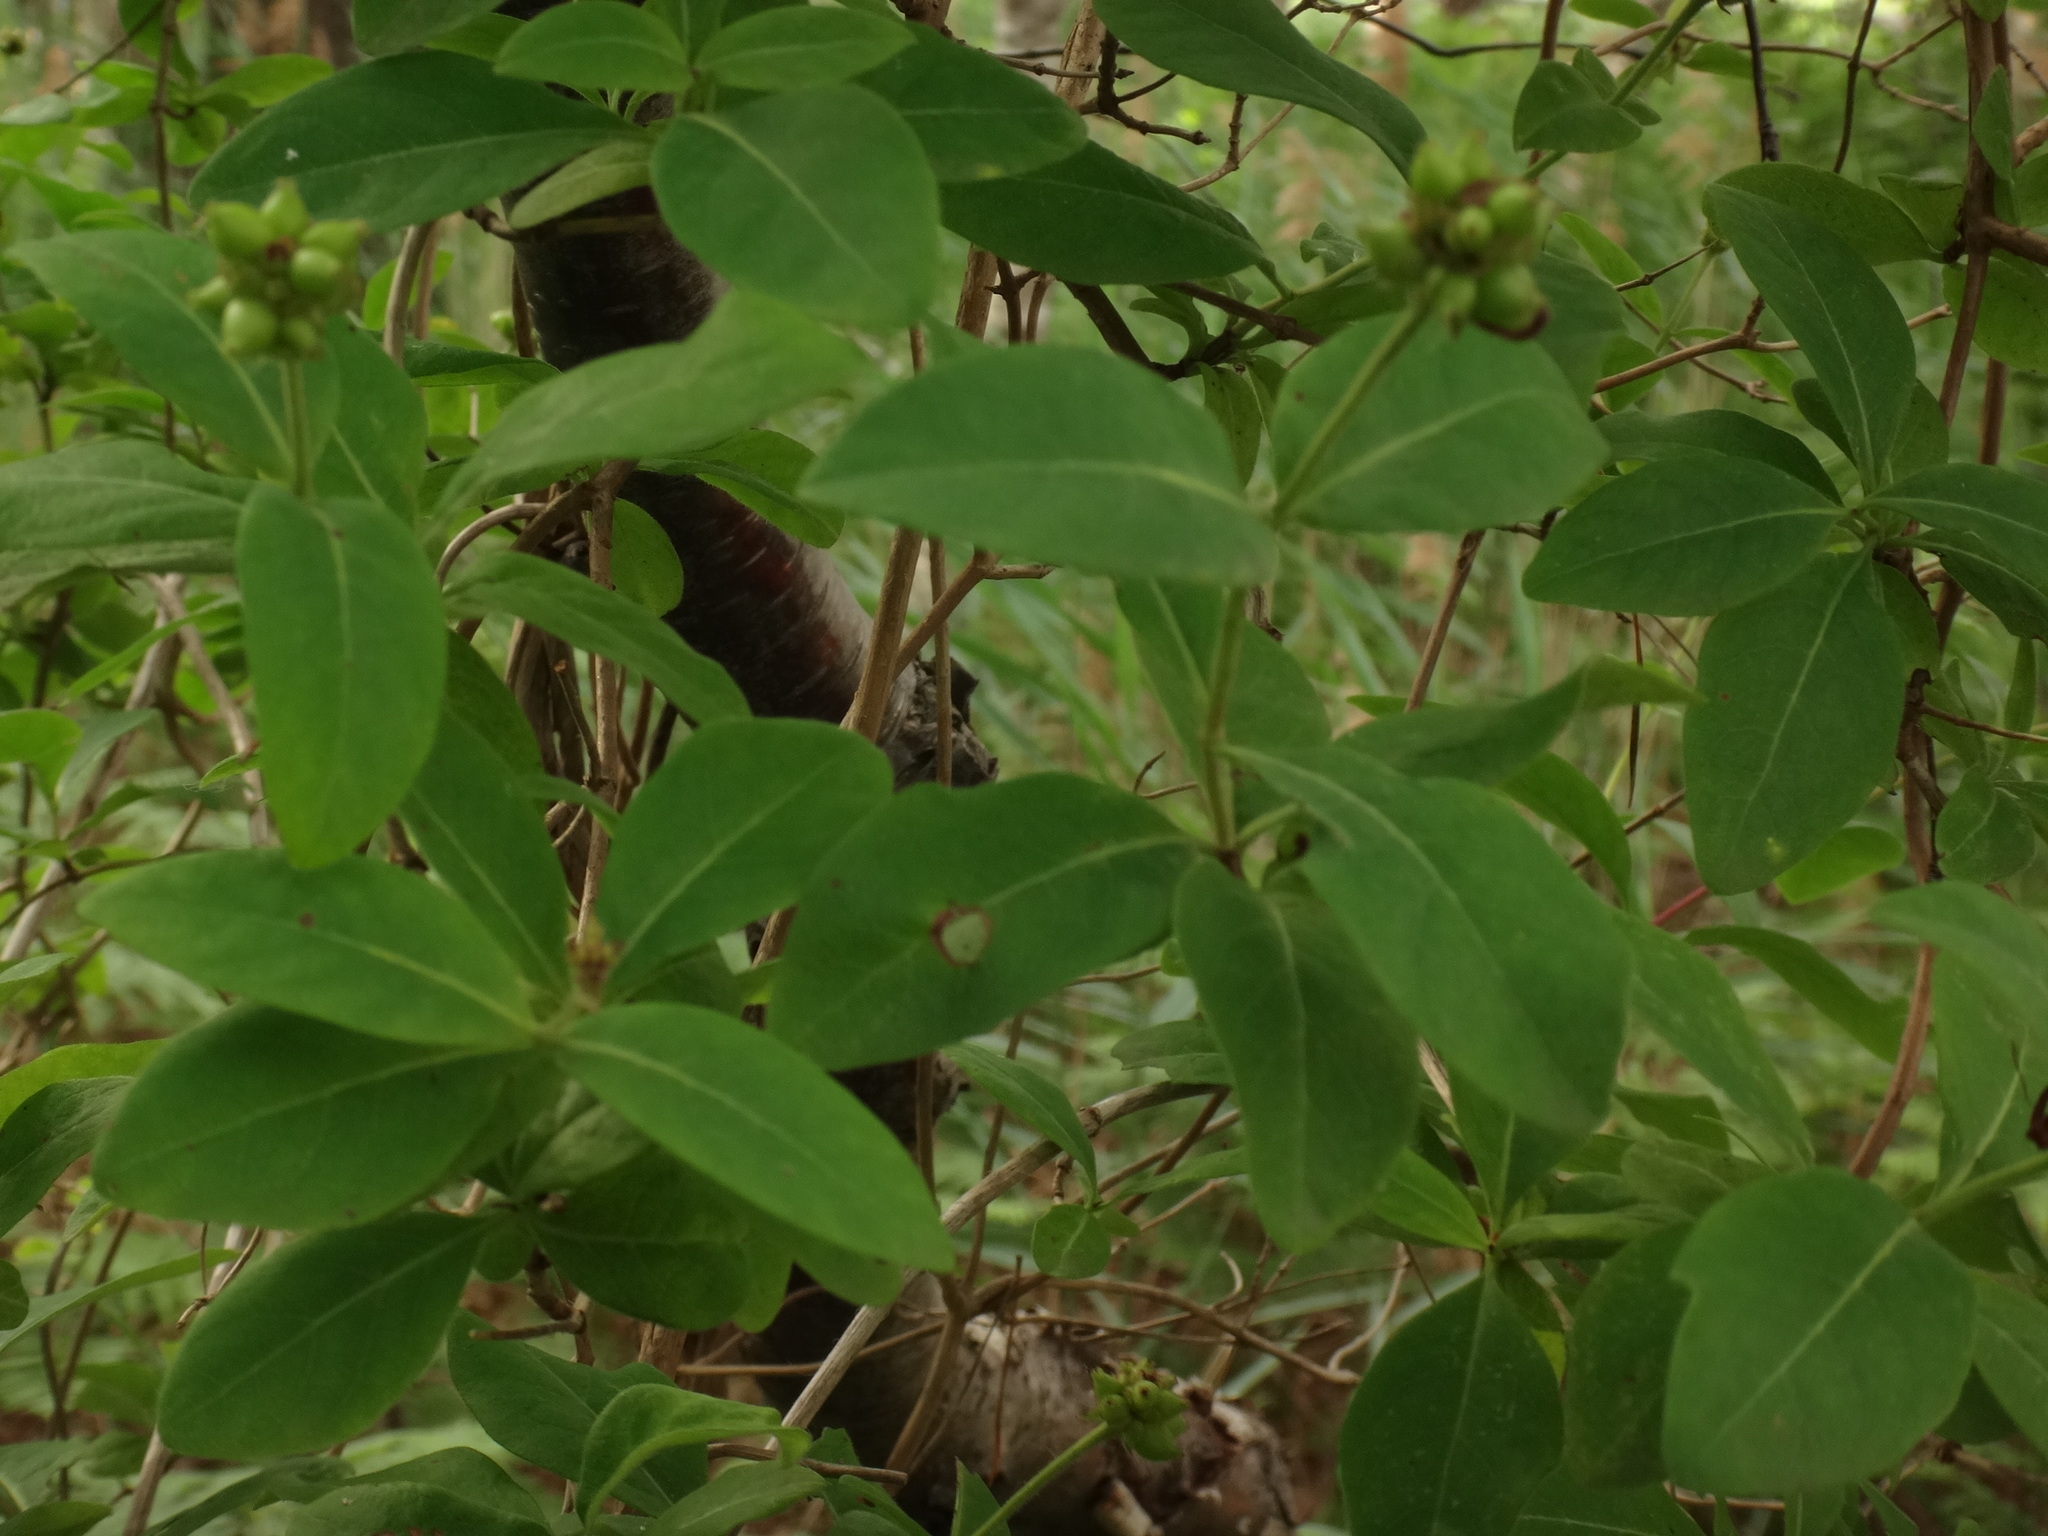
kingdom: Plantae
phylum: Tracheophyta
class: Magnoliopsida
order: Dipsacales
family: Caprifoliaceae
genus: Lonicera
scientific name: Lonicera periclymenum
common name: European honeysuckle
